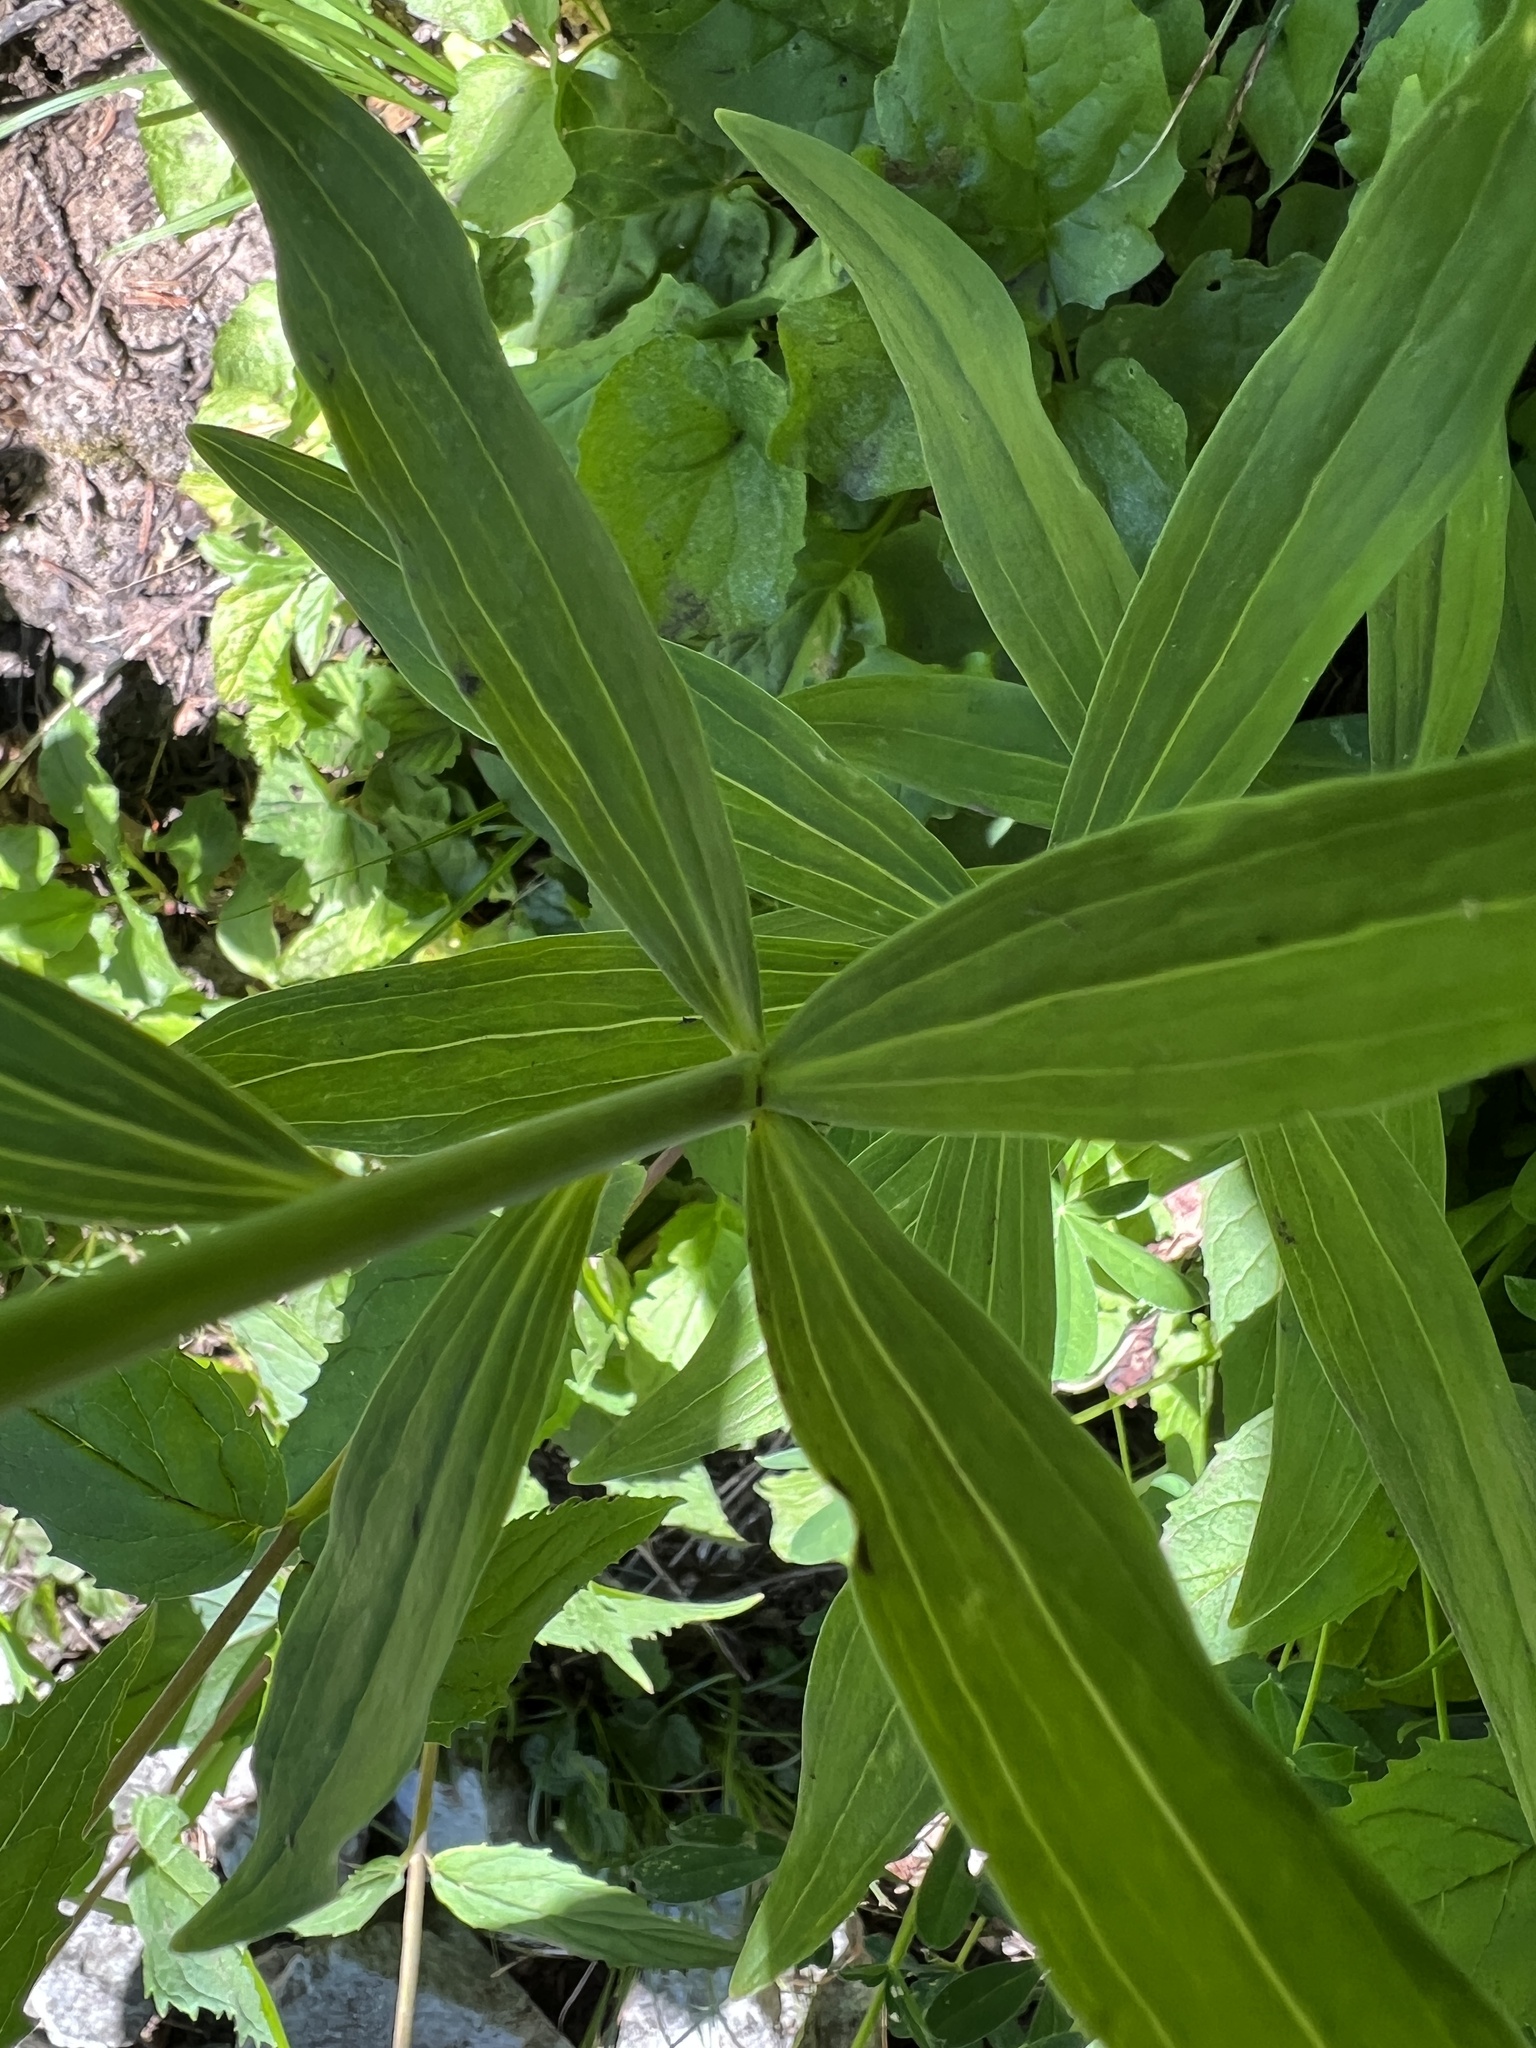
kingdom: Plantae
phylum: Tracheophyta
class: Liliopsida
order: Liliales
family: Liliaceae
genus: Lilium
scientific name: Lilium columbianum
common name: Columbia lily
